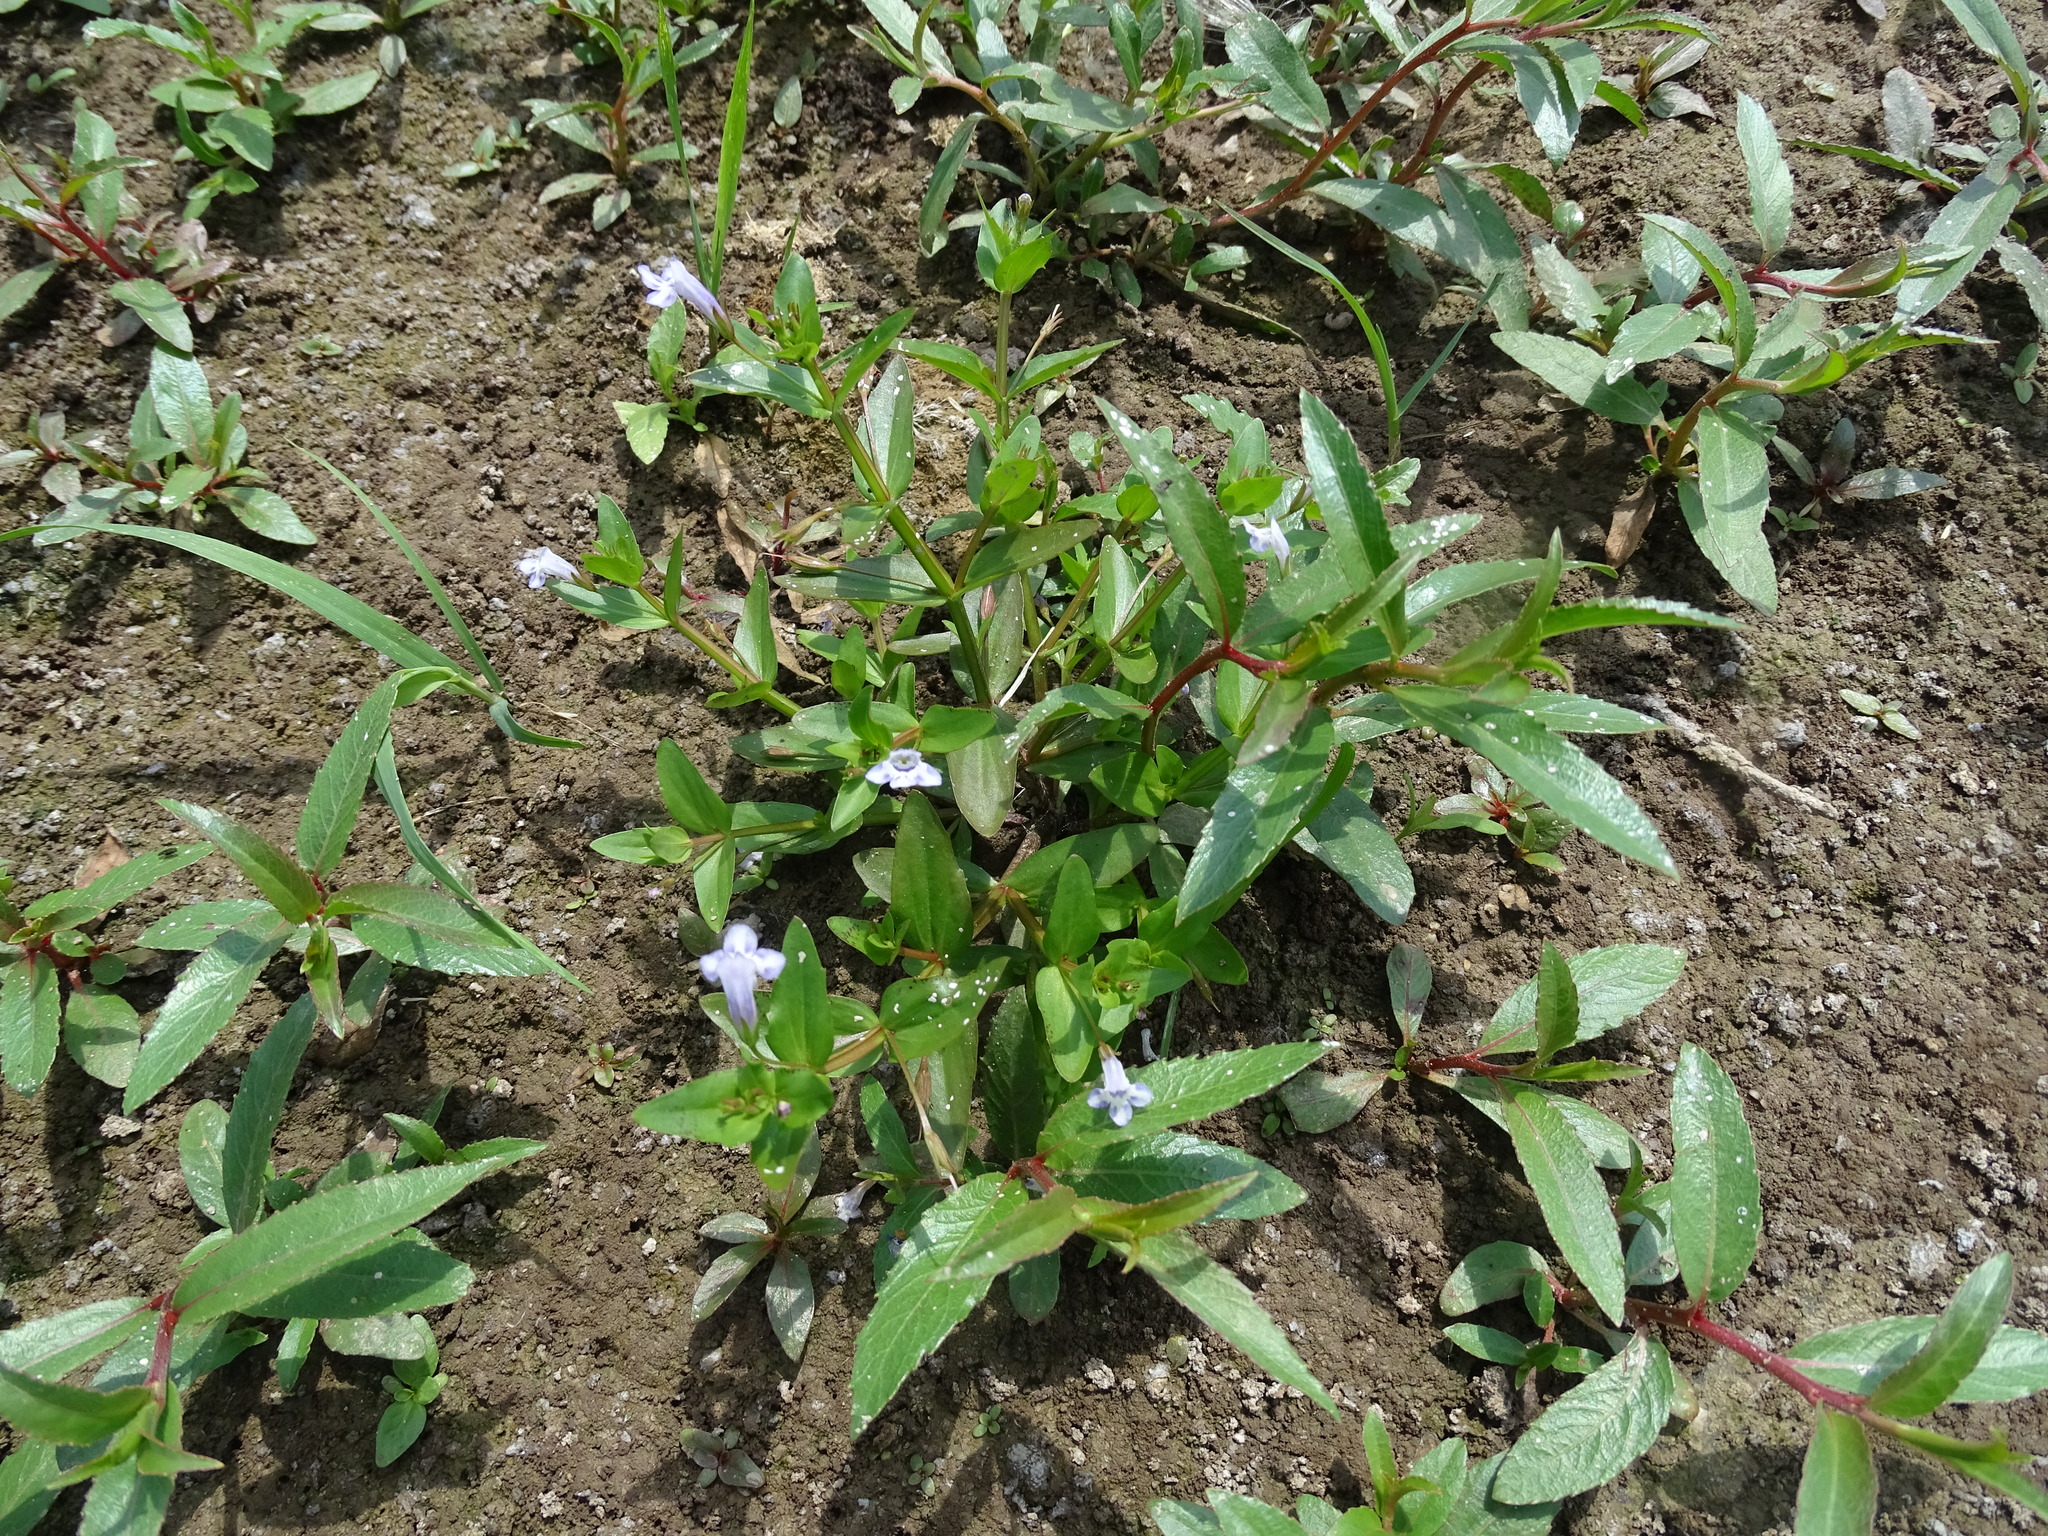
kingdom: Plantae
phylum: Tracheophyta
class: Magnoliopsida
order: Lamiales
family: Linderniaceae
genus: Lindernia
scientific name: Lindernia dubia
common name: Annual false pimpernel
